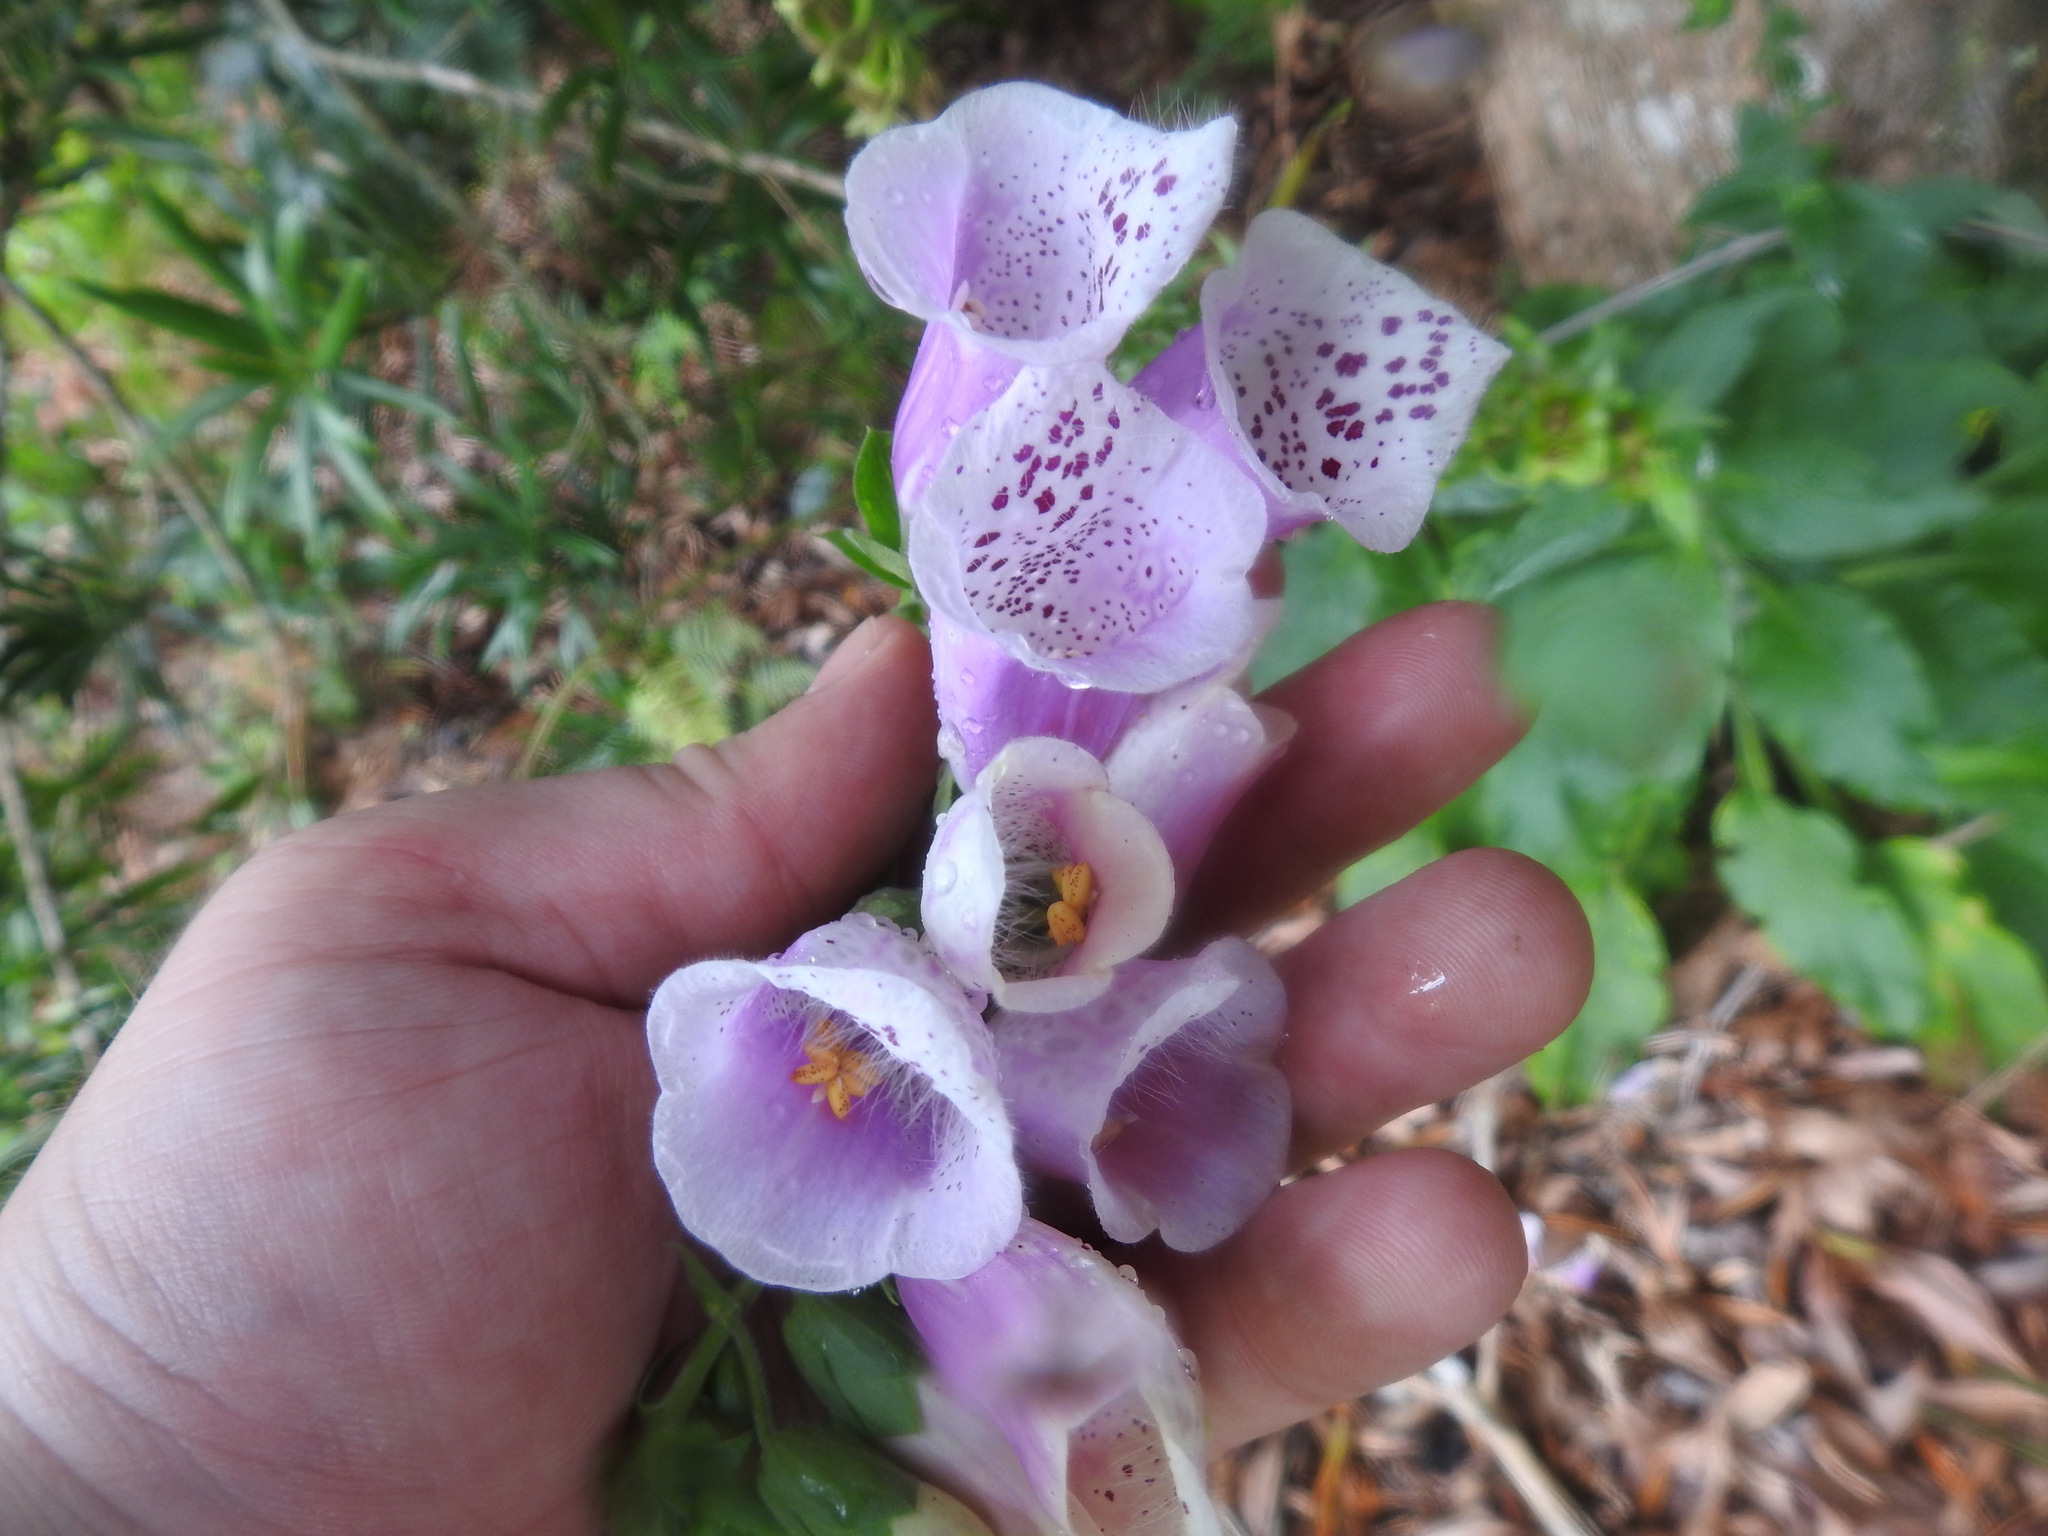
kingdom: Plantae
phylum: Tracheophyta
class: Magnoliopsida
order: Lamiales
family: Plantaginaceae
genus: Digitalis
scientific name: Digitalis purpurea
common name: Foxglove
